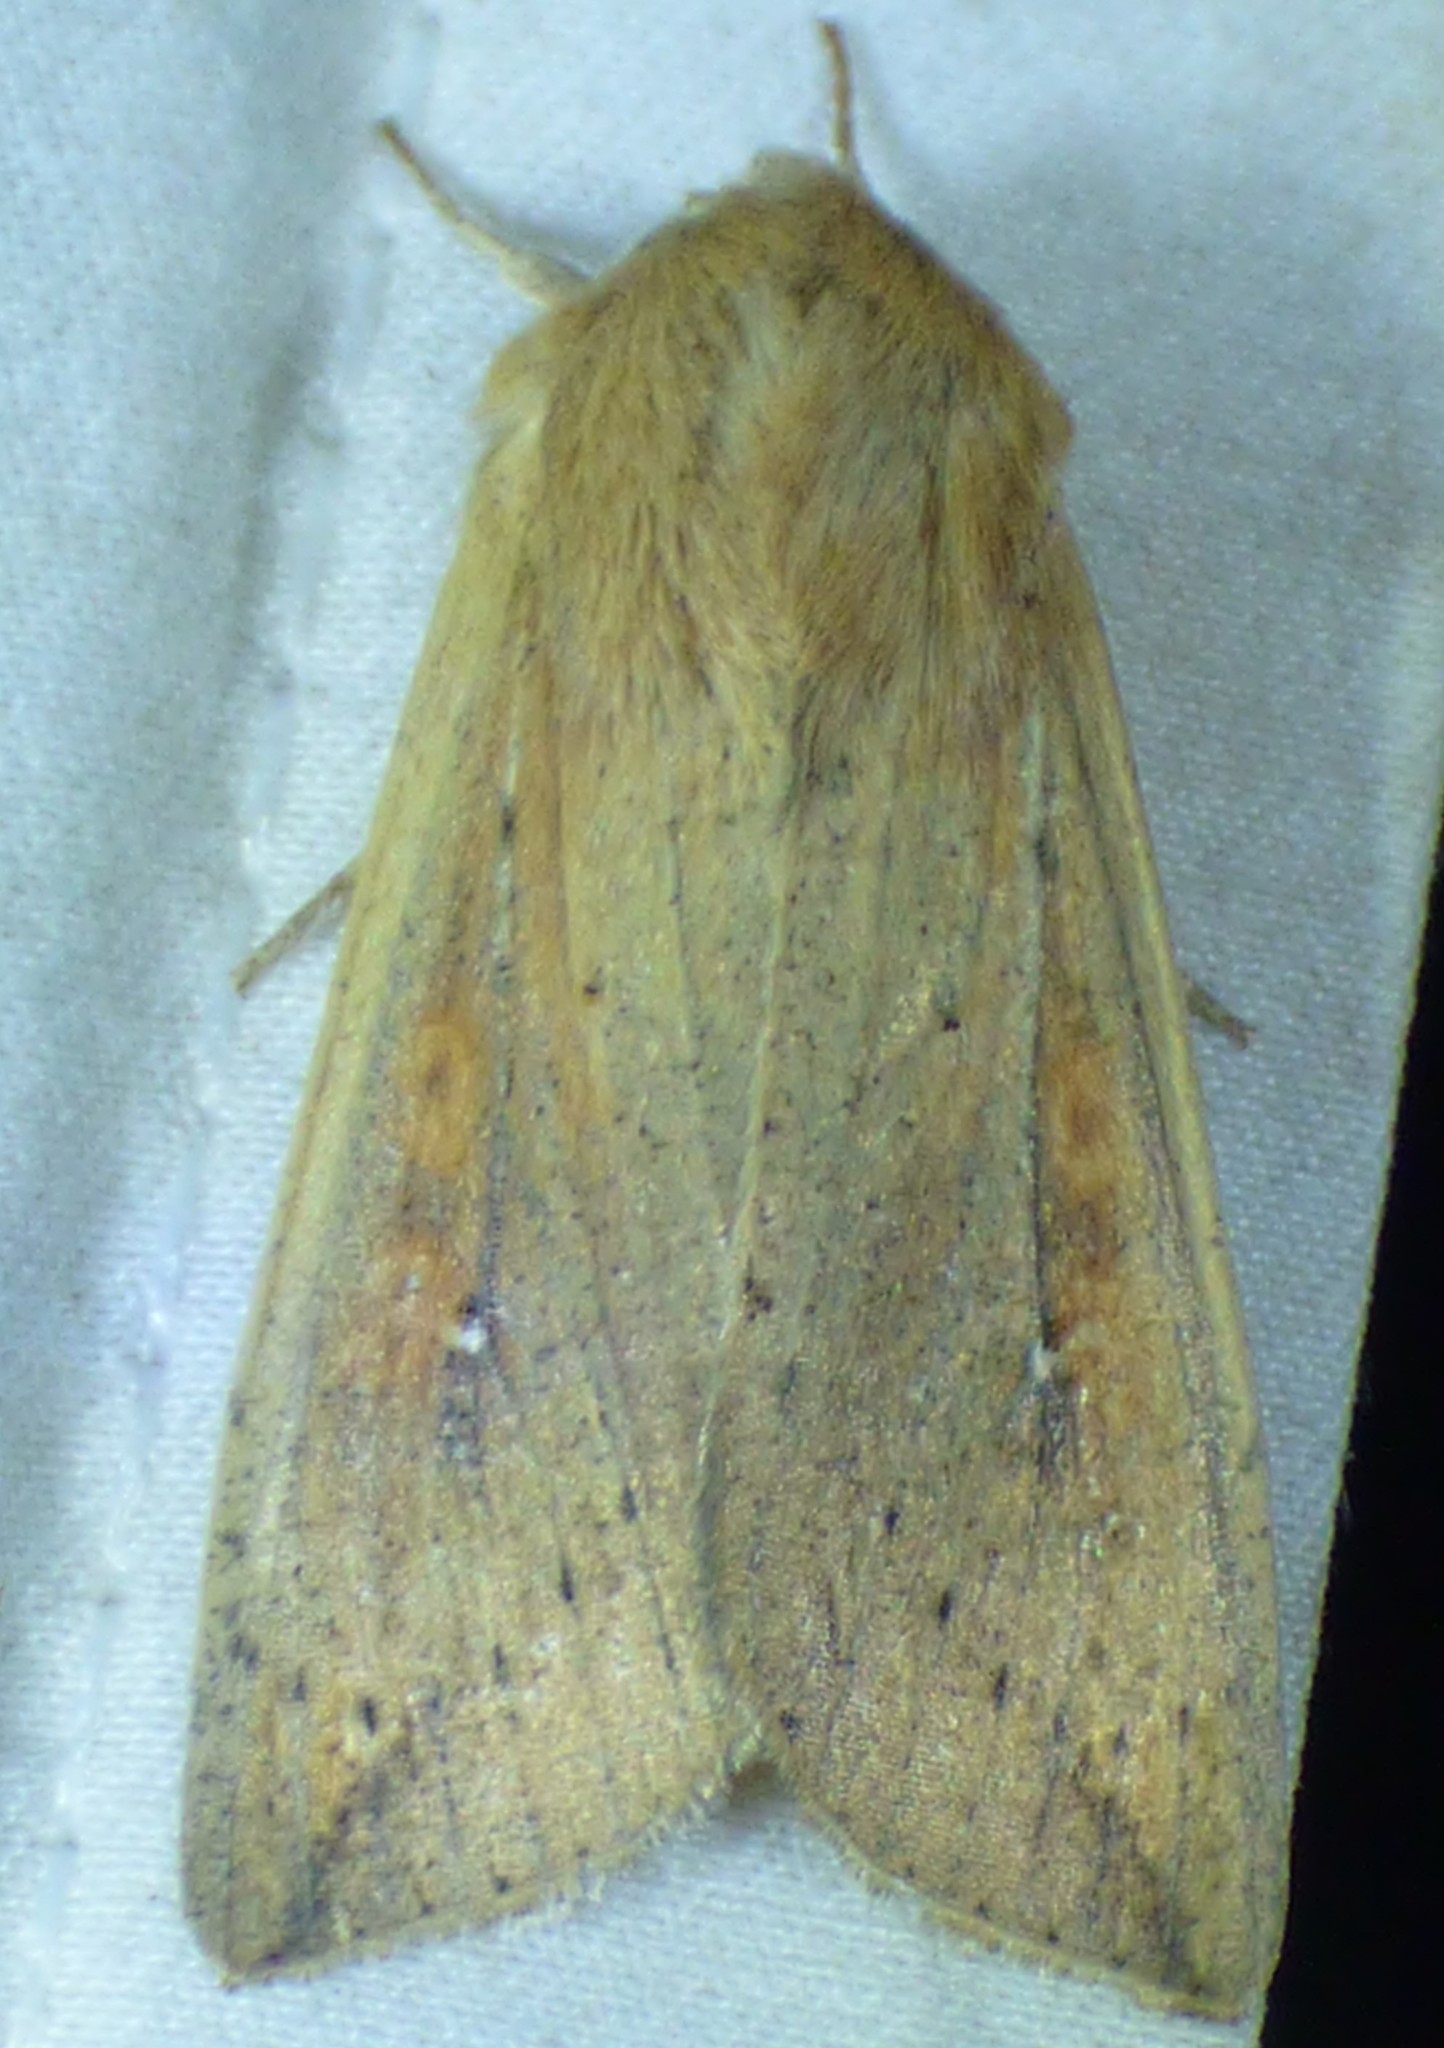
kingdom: Animalia
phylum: Arthropoda
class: Insecta
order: Lepidoptera
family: Noctuidae
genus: Mythimna
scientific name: Mythimna unipuncta
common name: White-speck
